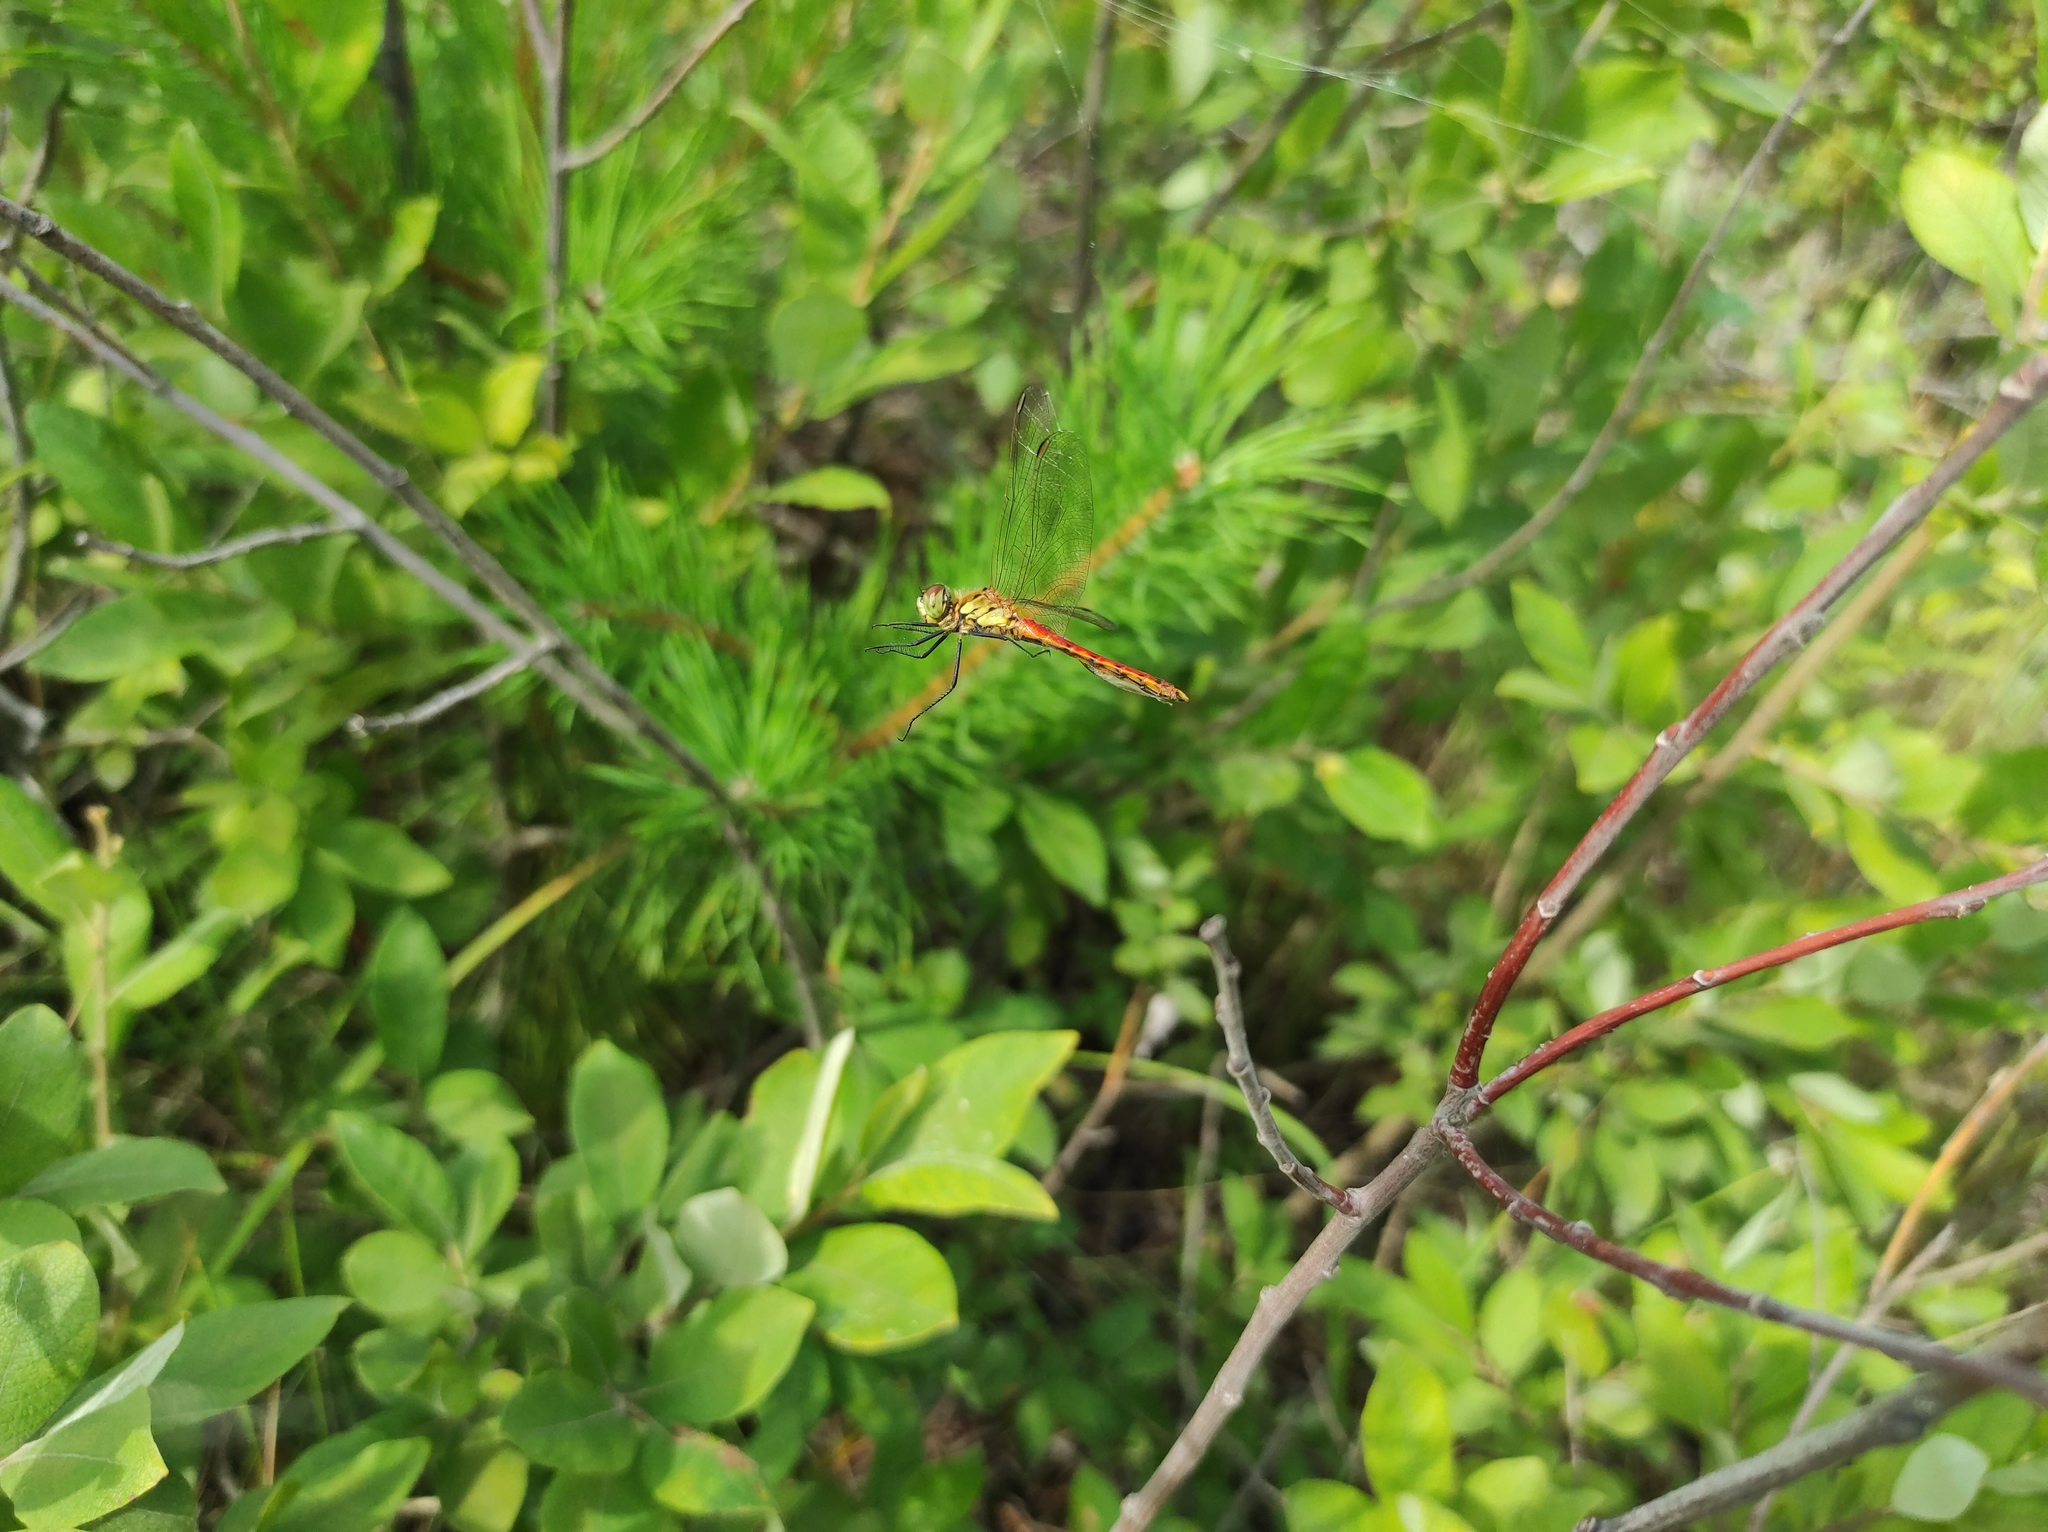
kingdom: Animalia
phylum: Arthropoda
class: Insecta
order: Odonata
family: Libellulidae
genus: Sympetrum
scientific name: Sympetrum depressiusculum
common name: Spotted darter
